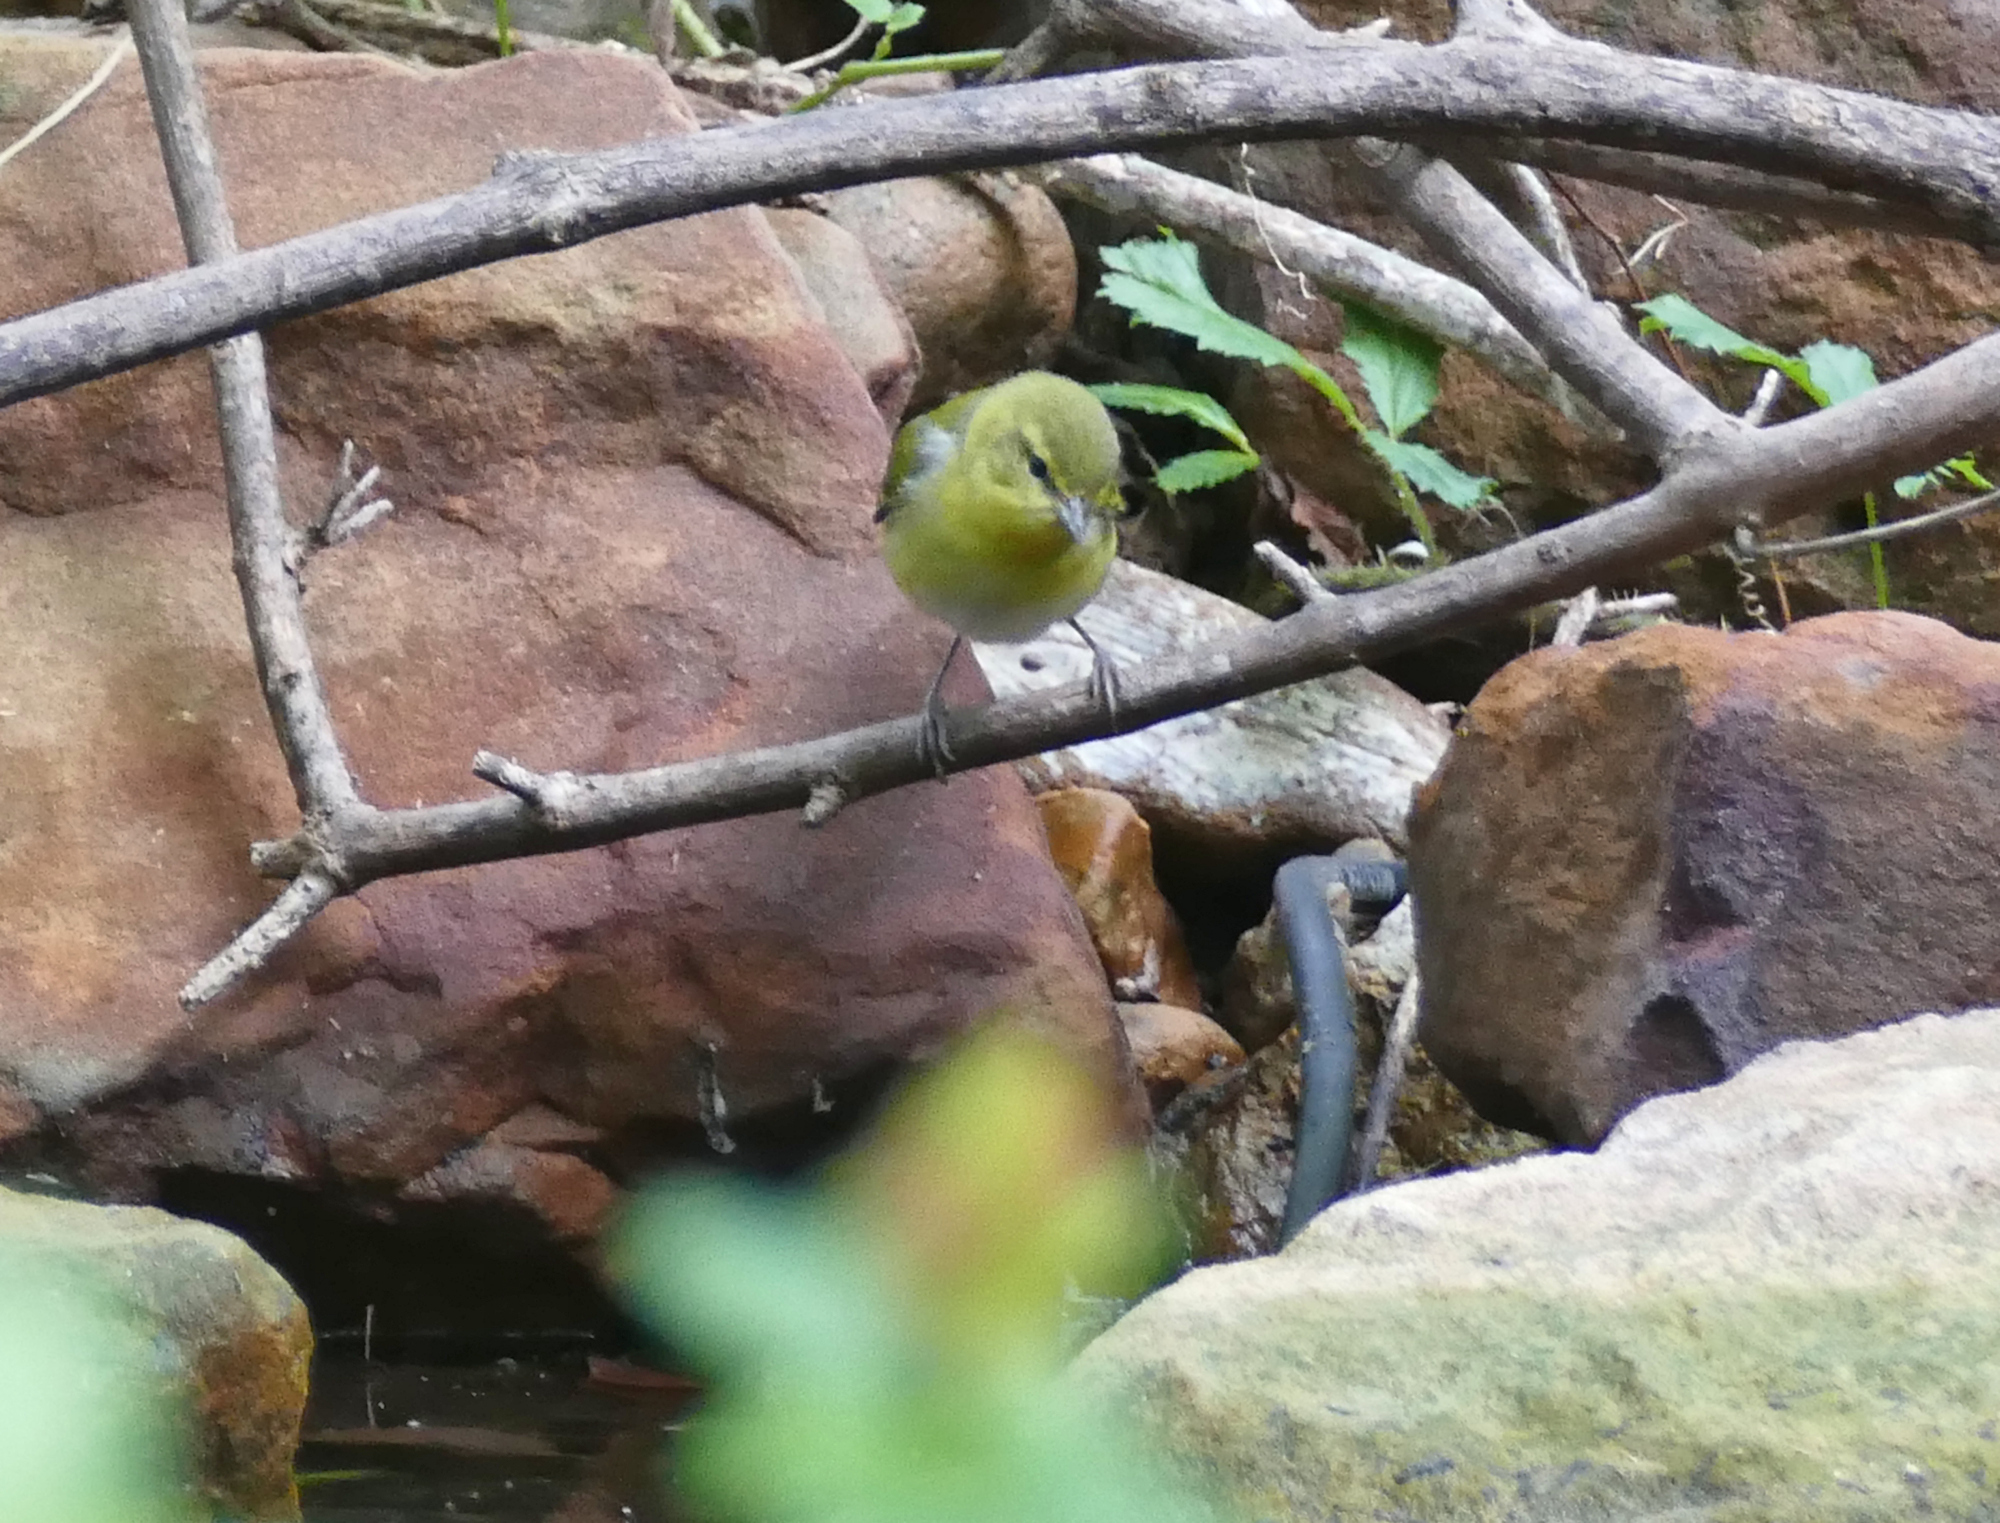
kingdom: Animalia
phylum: Chordata
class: Aves
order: Passeriformes
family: Parulidae
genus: Leiothlypis
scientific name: Leiothlypis peregrina
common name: Tennessee warbler
